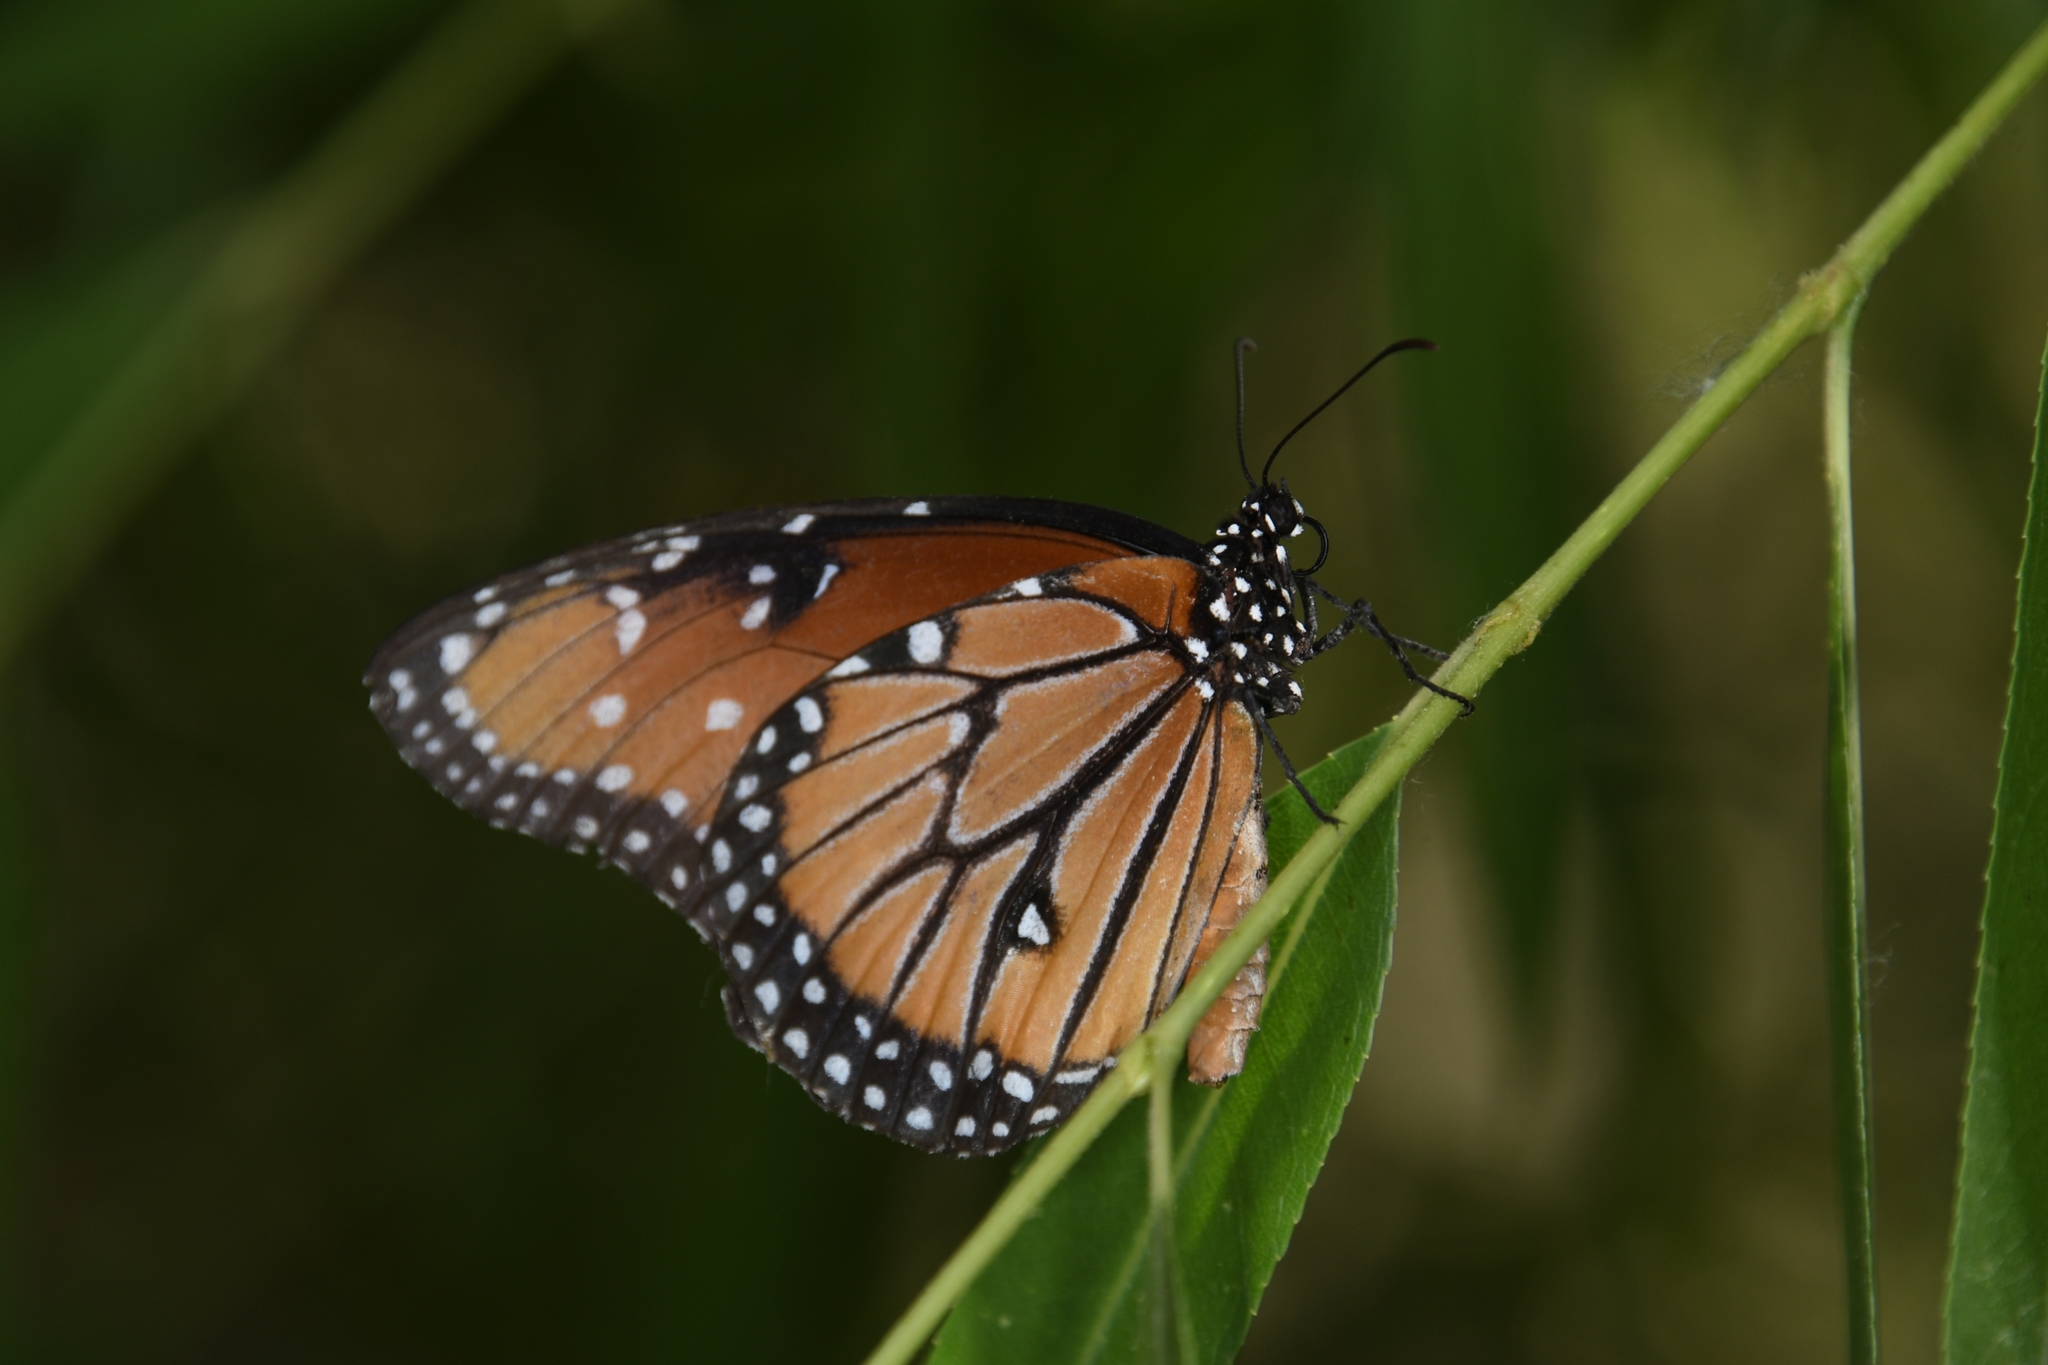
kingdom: Animalia
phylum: Arthropoda
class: Insecta
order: Lepidoptera
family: Nymphalidae
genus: Danaus
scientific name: Danaus gilippus
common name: Queen
